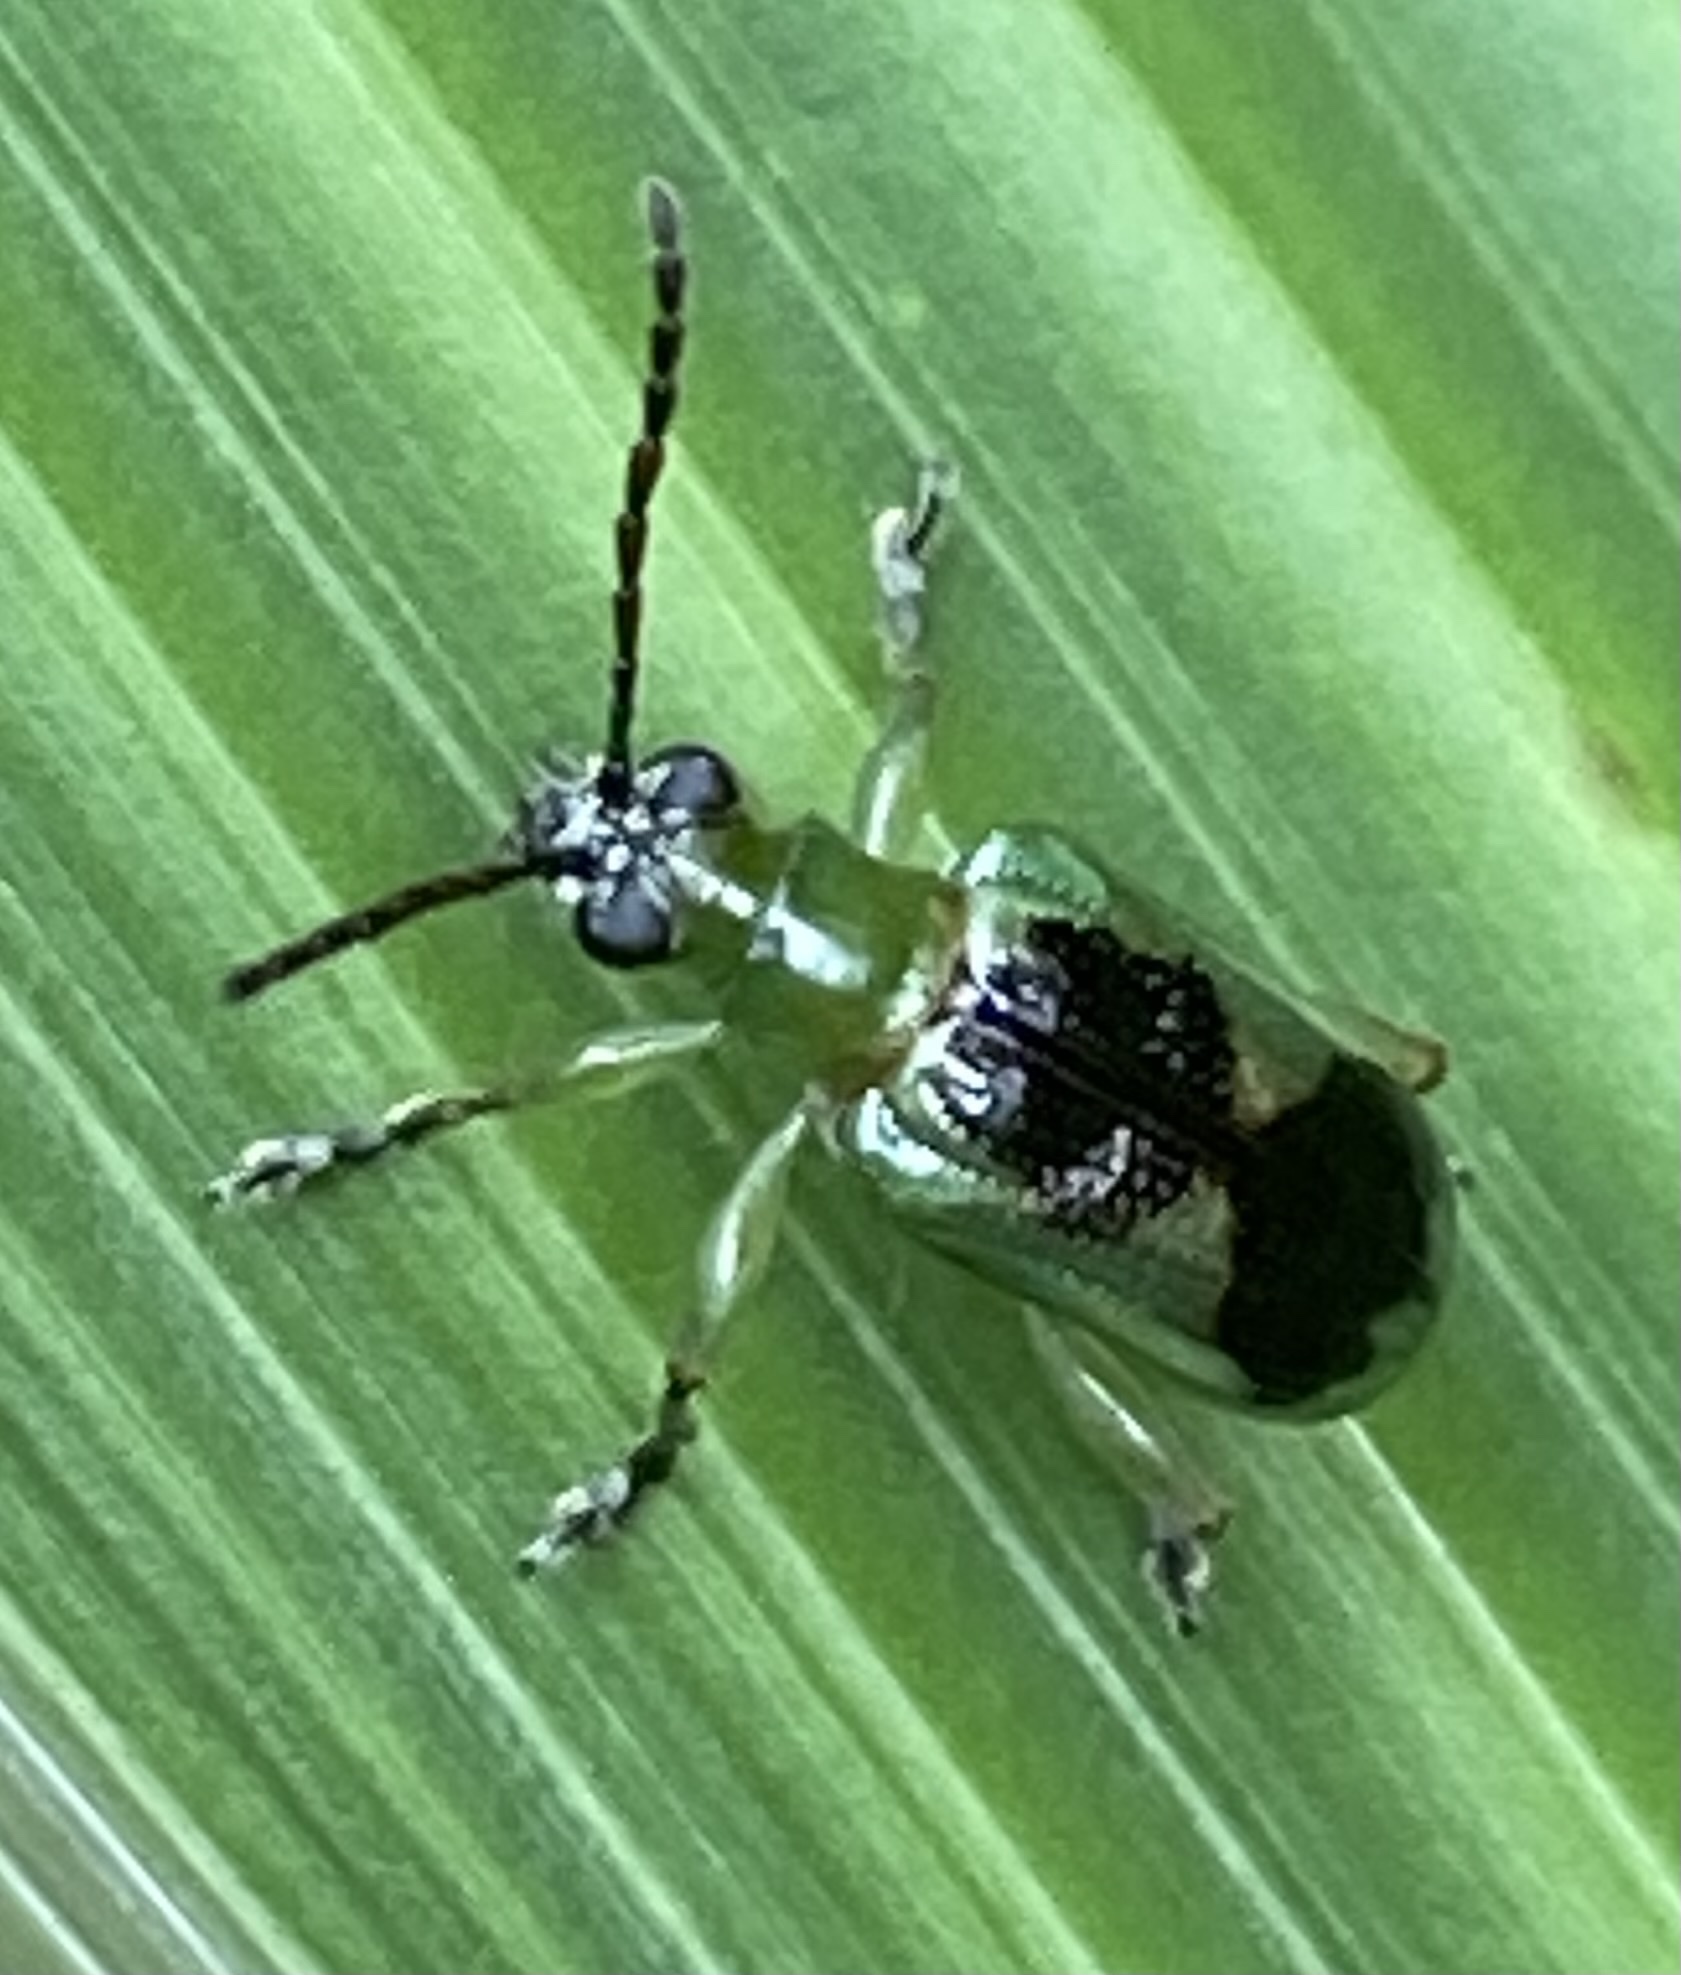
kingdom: Animalia
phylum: Arthropoda
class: Insecta
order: Coleoptera
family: Chrysomelidae
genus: Neolema
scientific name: Neolema
